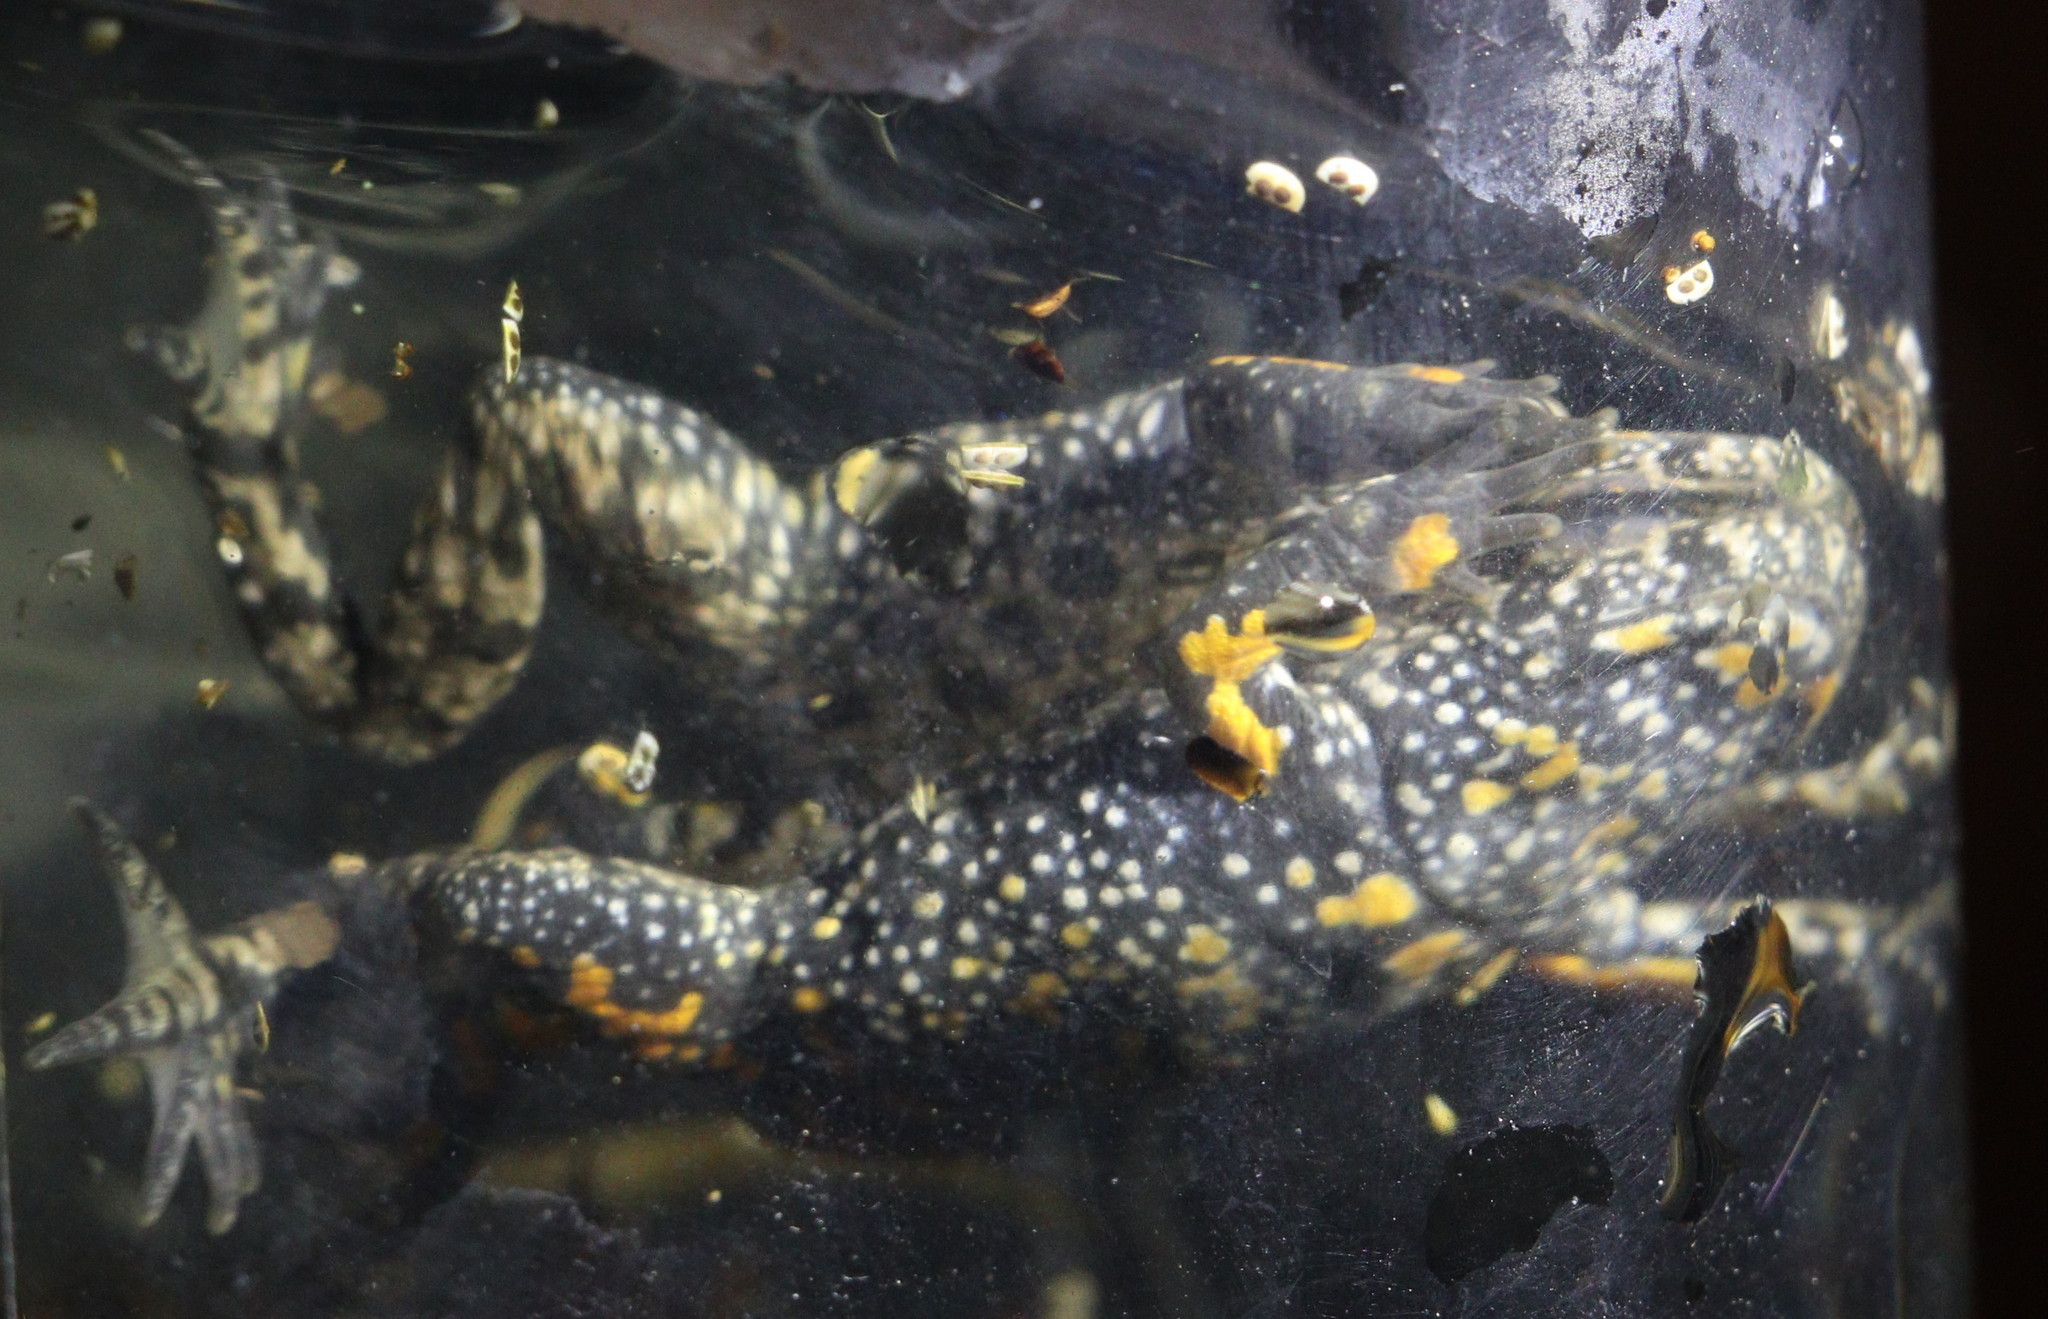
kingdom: Animalia
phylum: Chordata
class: Amphibia
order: Anura
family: Bombinatoridae
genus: Bombina
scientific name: Bombina bombina
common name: Fire-bellied toad
